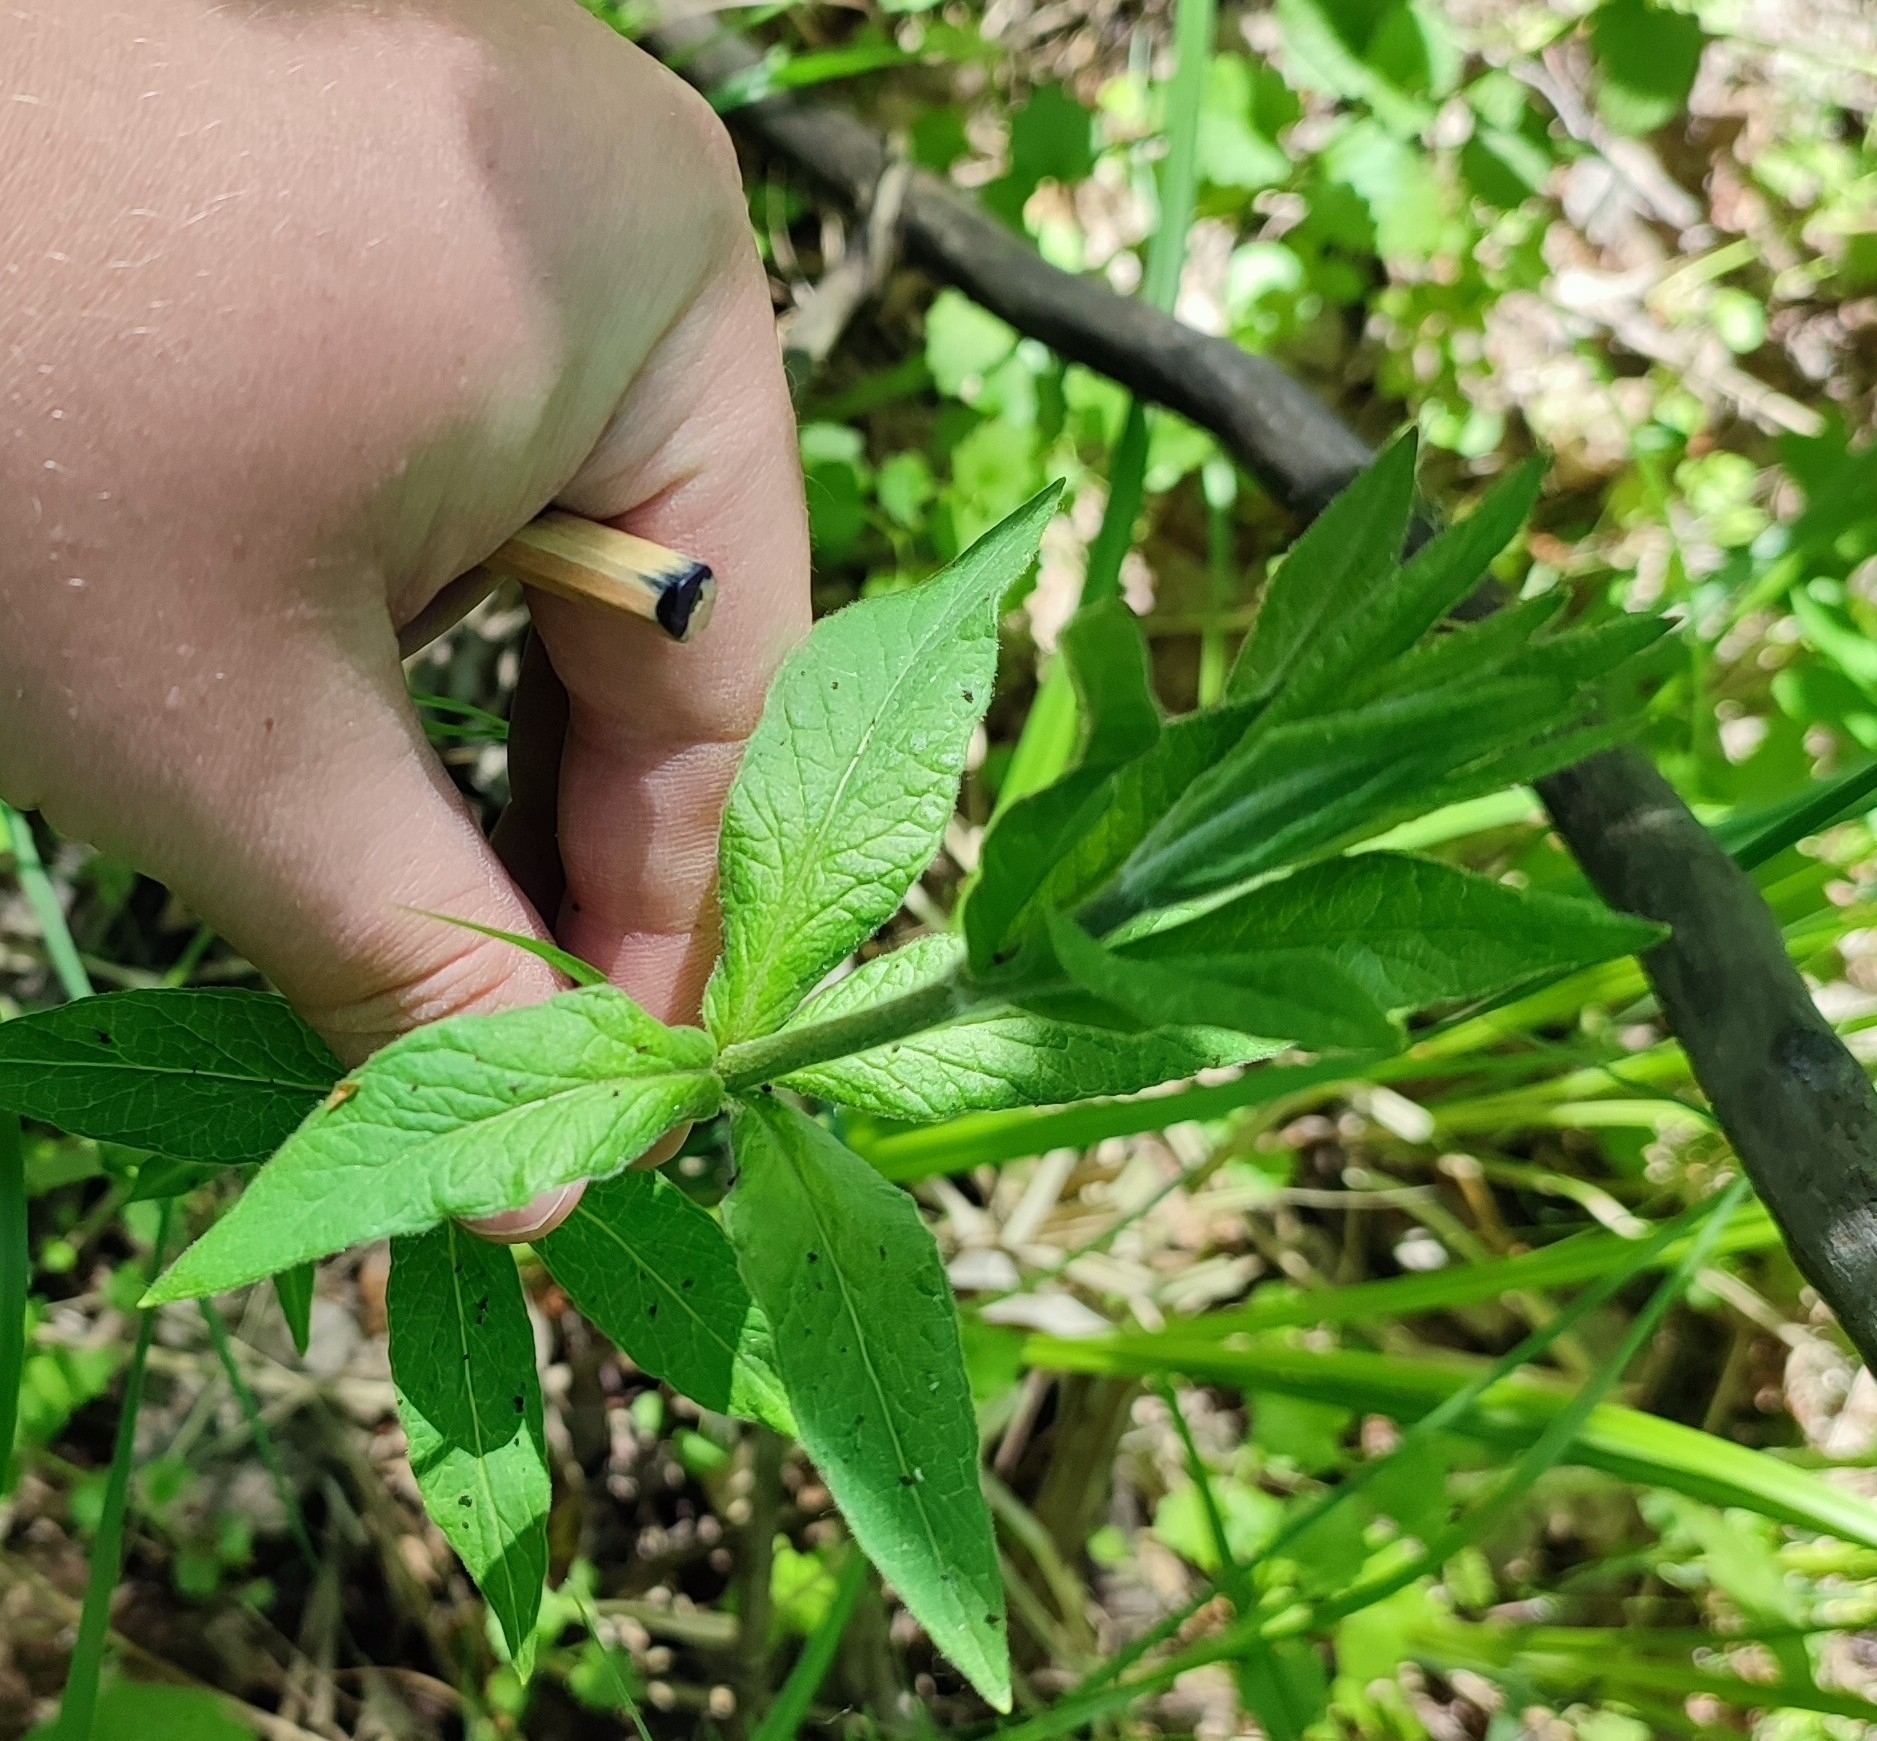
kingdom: Plantae
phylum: Tracheophyta
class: Magnoliopsida
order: Ericales
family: Primulaceae
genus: Lysimachia
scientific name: Lysimachia vulgaris
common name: Yellow loosestrife
